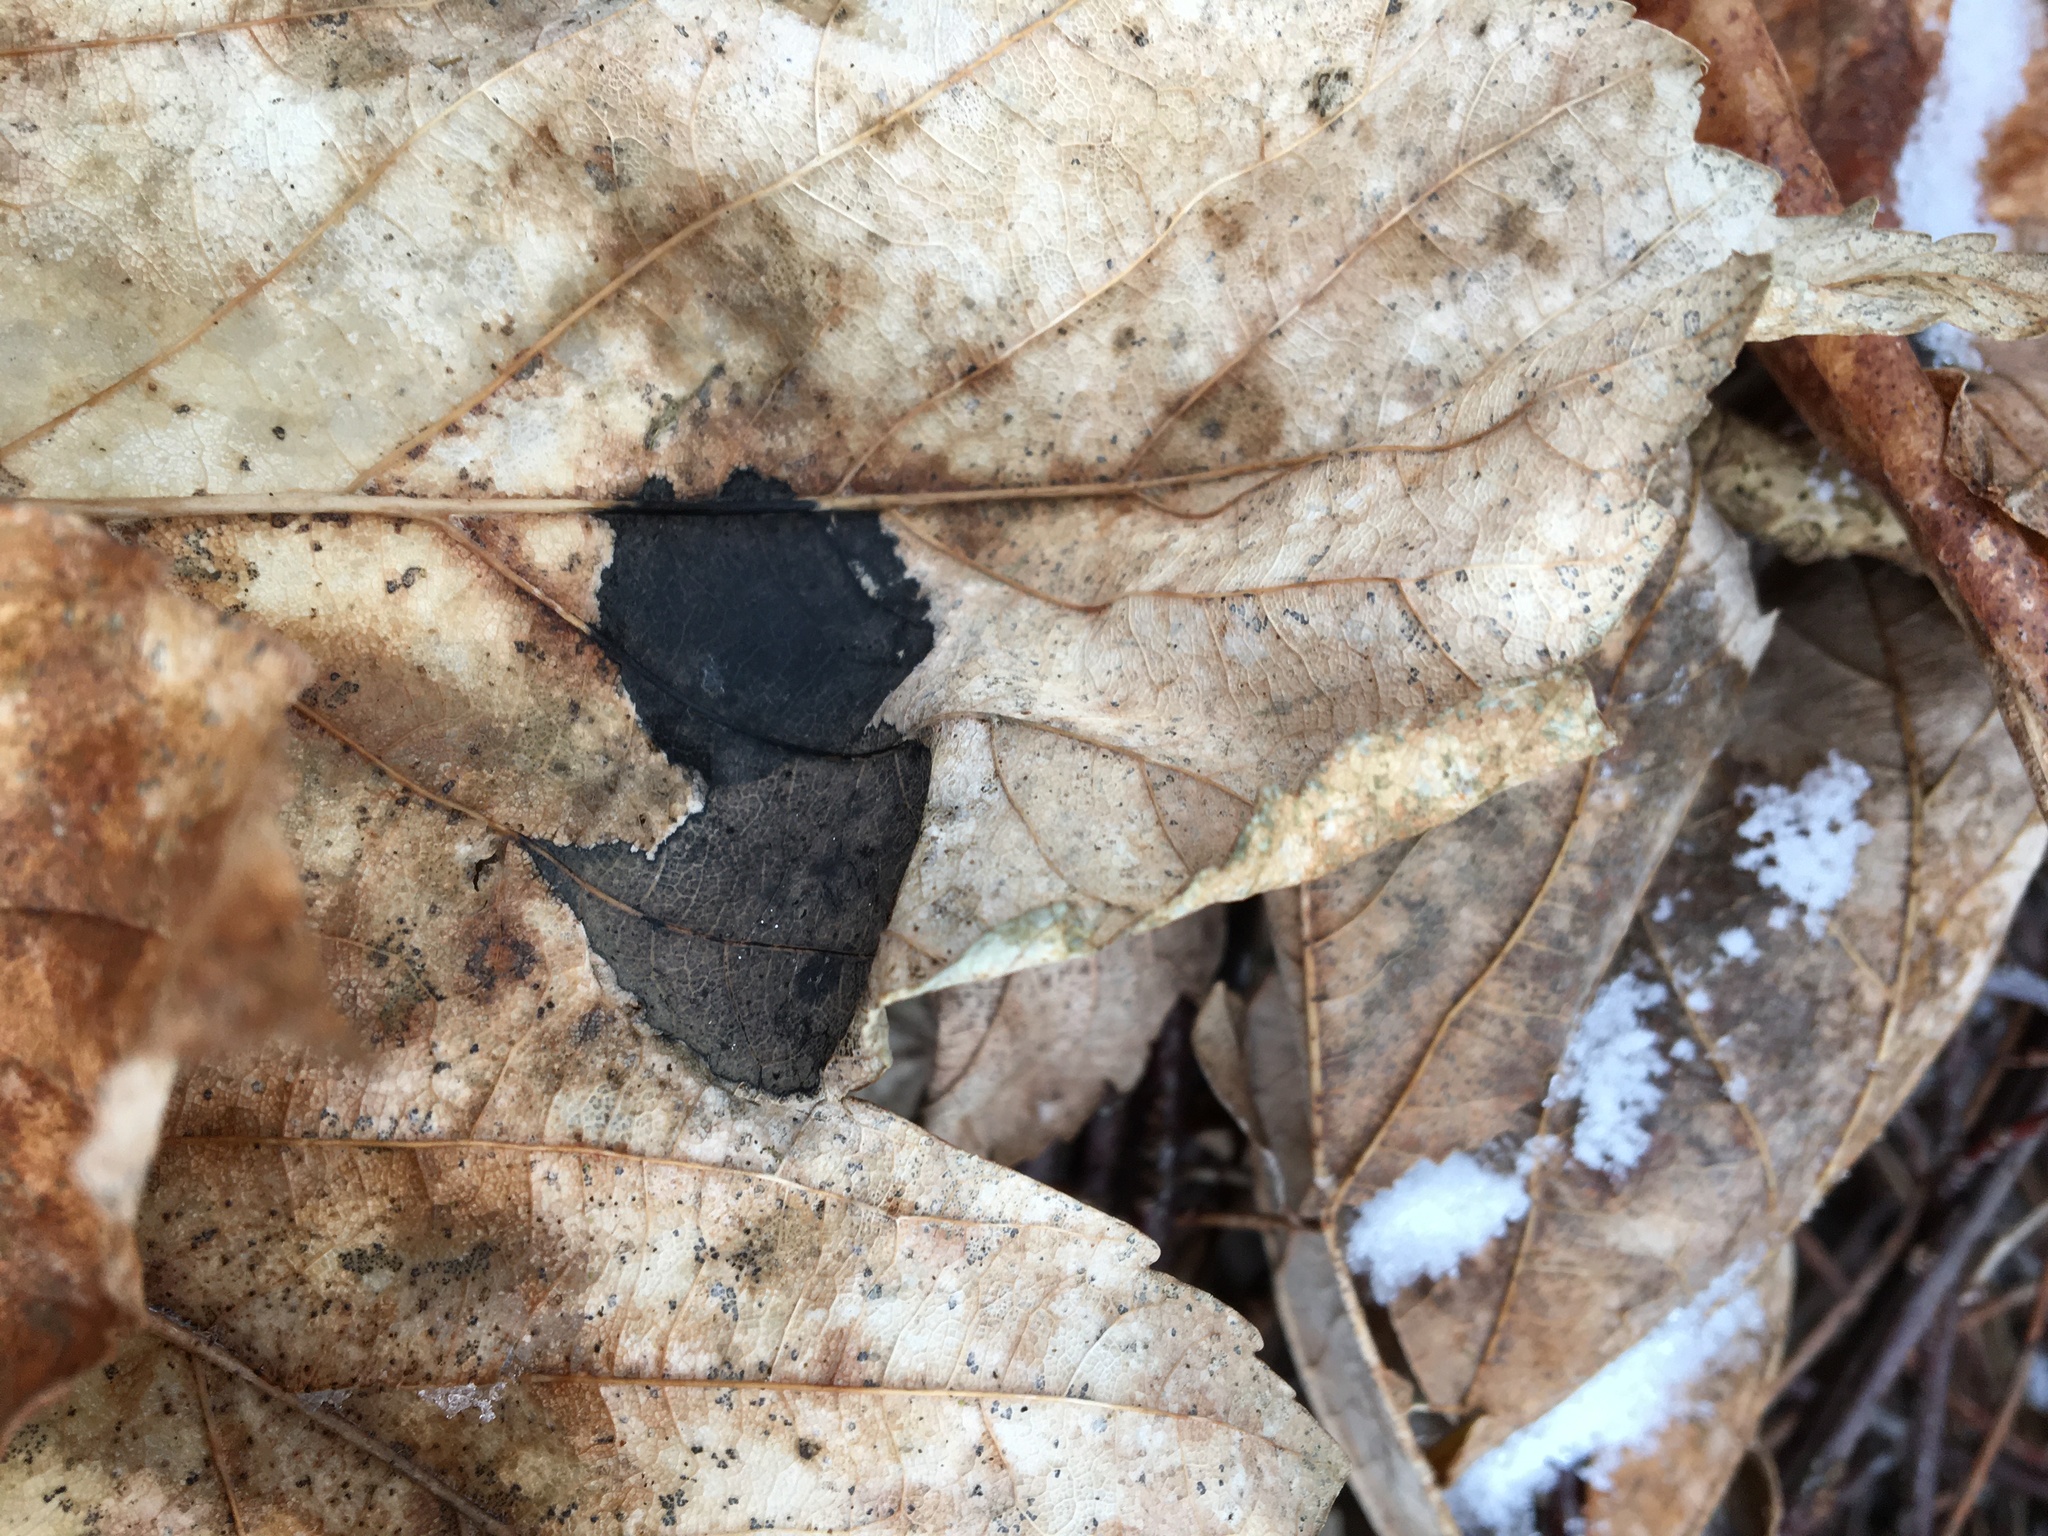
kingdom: Fungi
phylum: Ascomycota
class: Leotiomycetes
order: Rhytismatales
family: Rhytismataceae
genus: Rhytisma
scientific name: Rhytisma acerinum
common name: European tar spot
